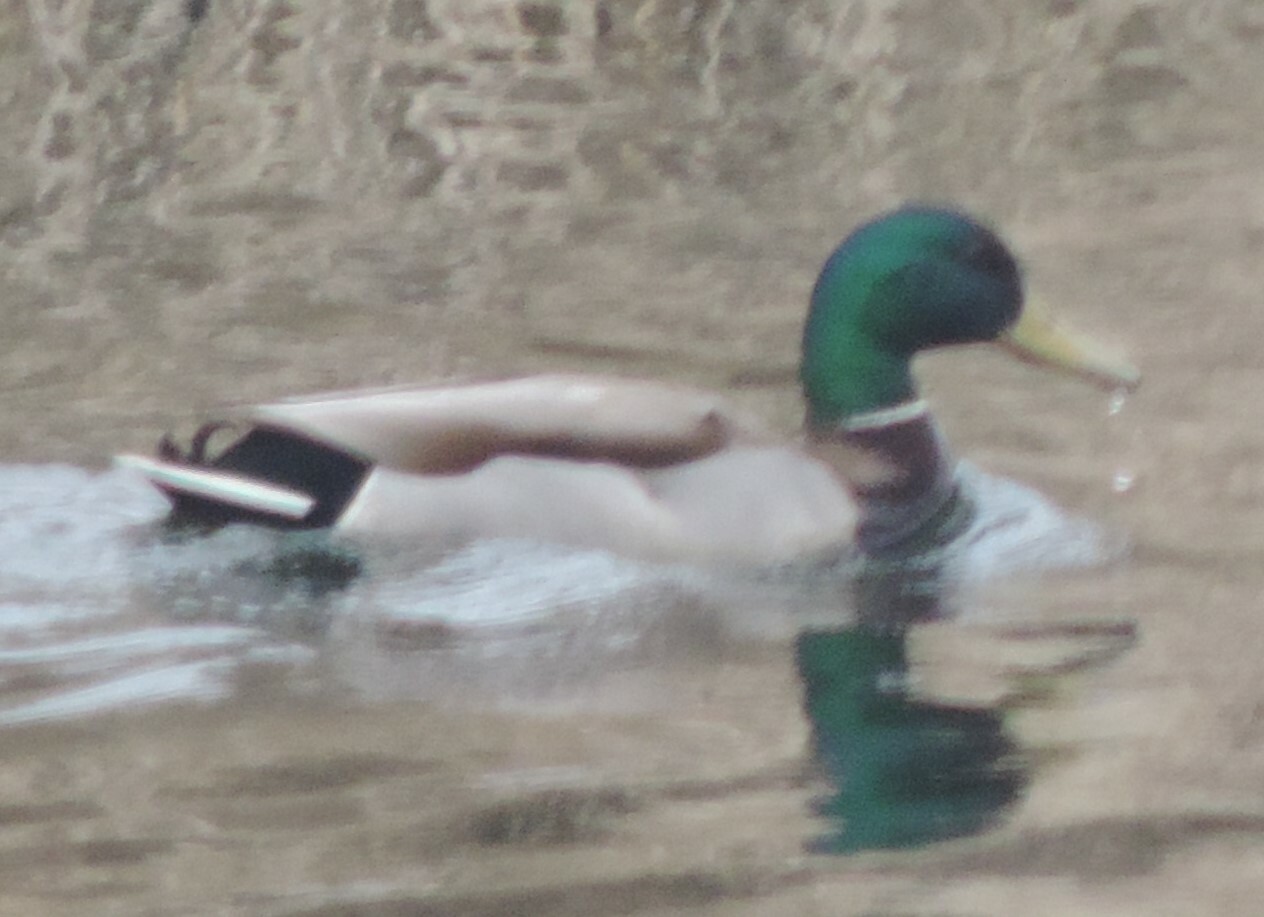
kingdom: Animalia
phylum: Chordata
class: Aves
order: Anseriformes
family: Anatidae
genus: Anas
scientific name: Anas platyrhynchos
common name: Mallard
